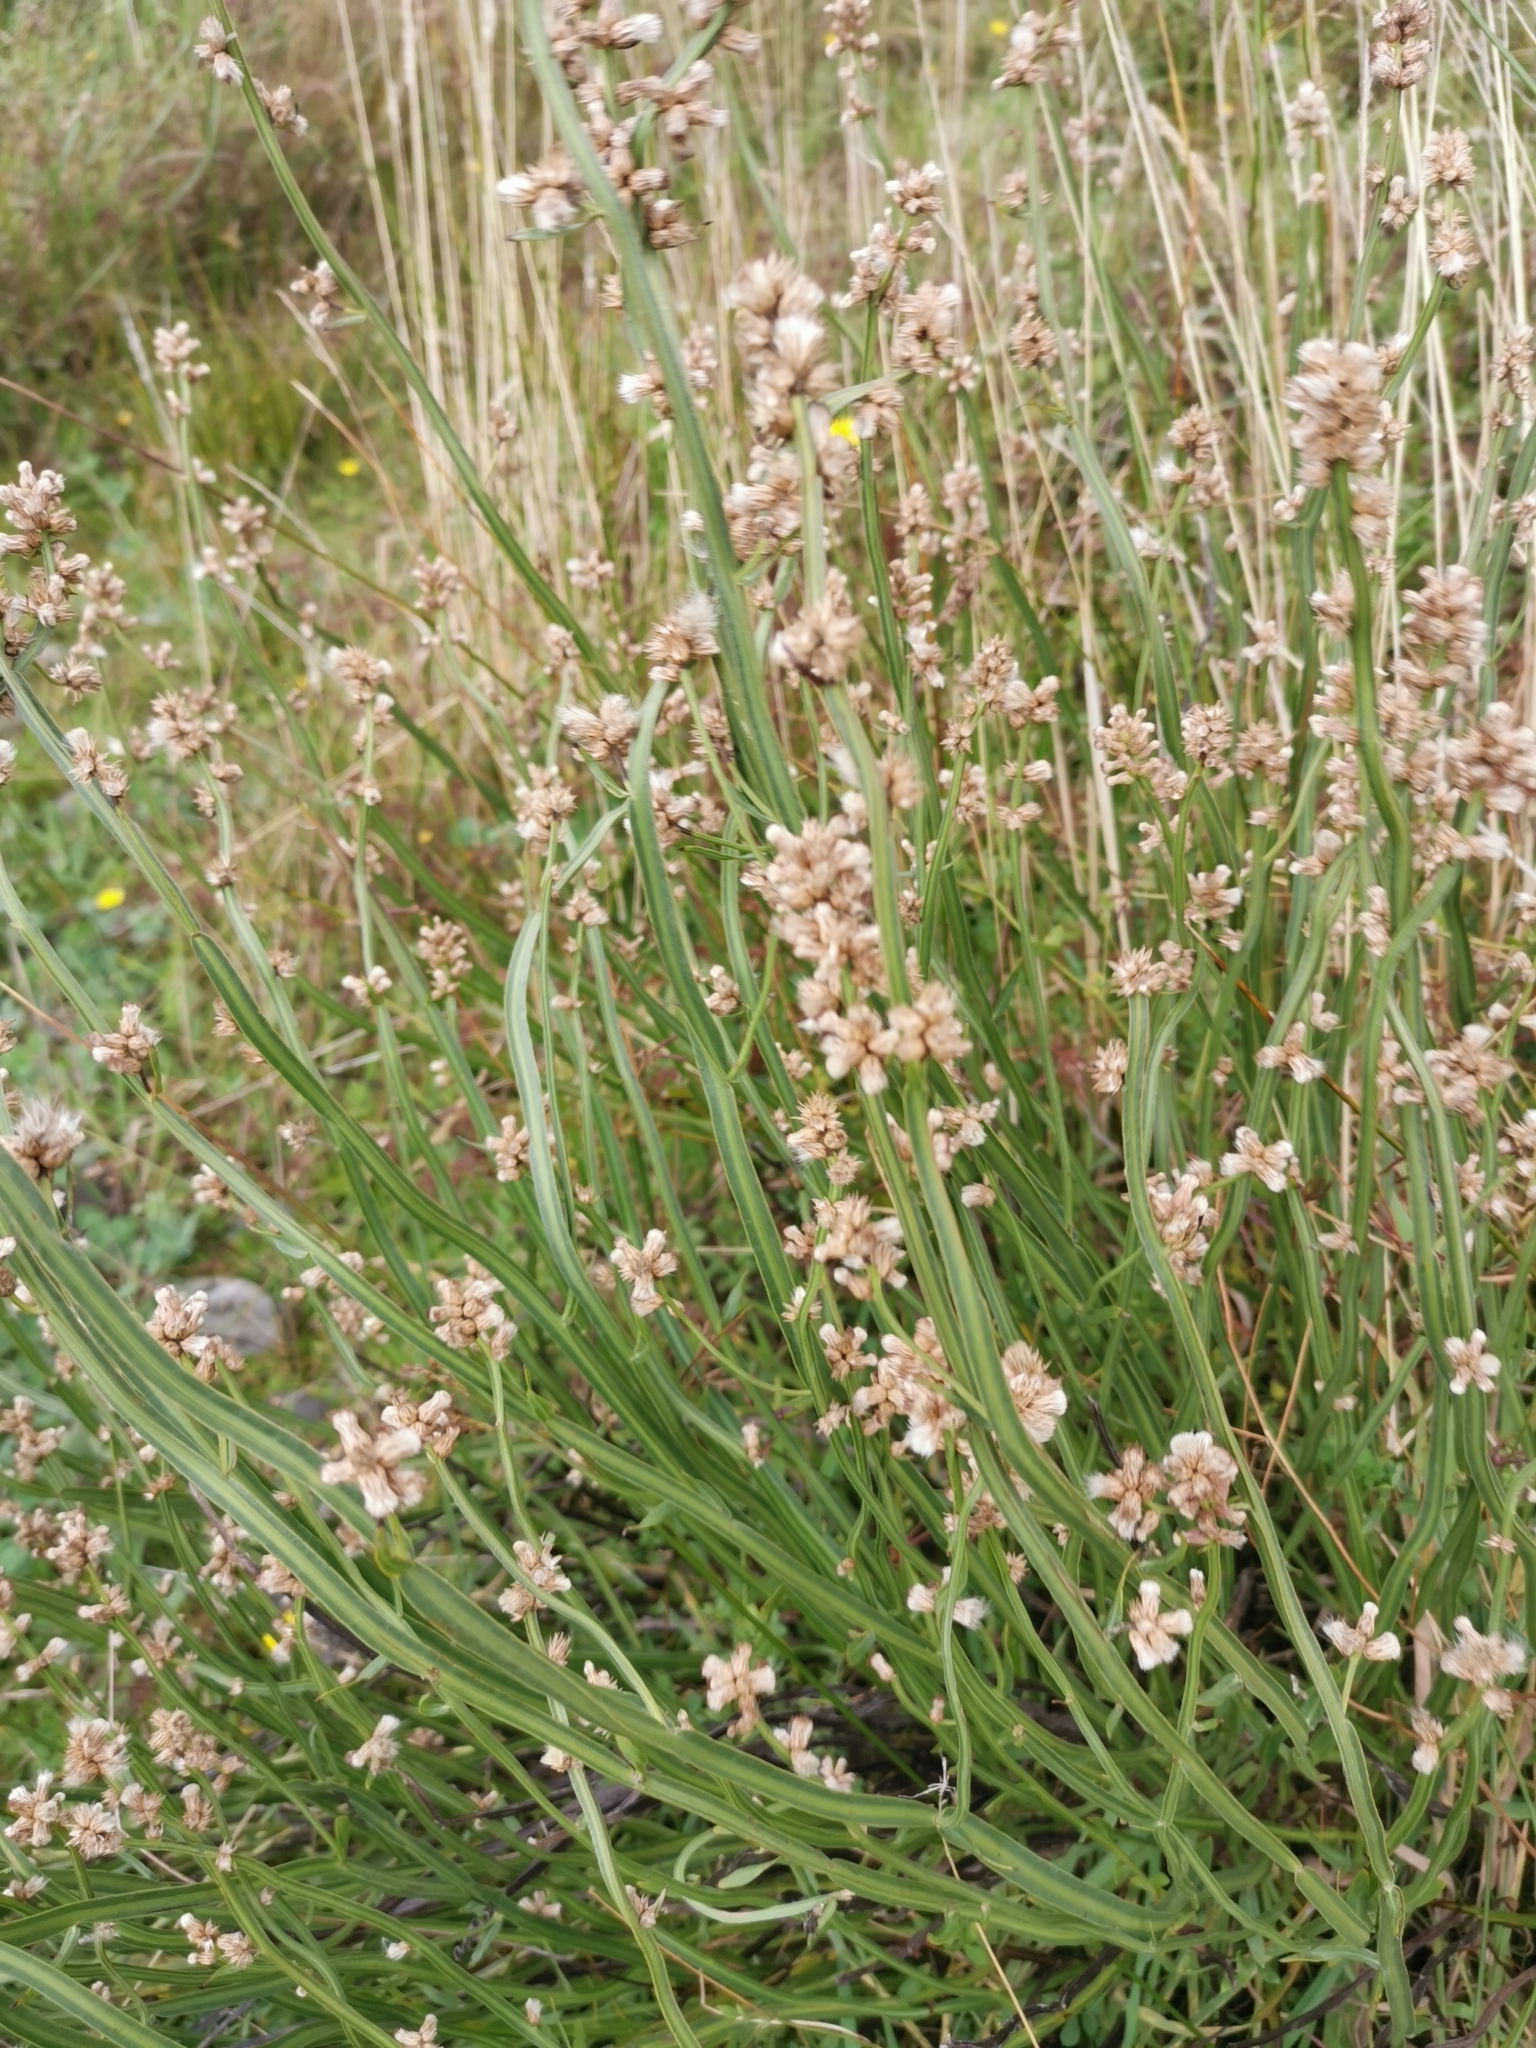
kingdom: Plantae
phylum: Tracheophyta
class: Magnoliopsida
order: Asterales
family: Asteraceae
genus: Baccharis
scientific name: Baccharis sagittalis
